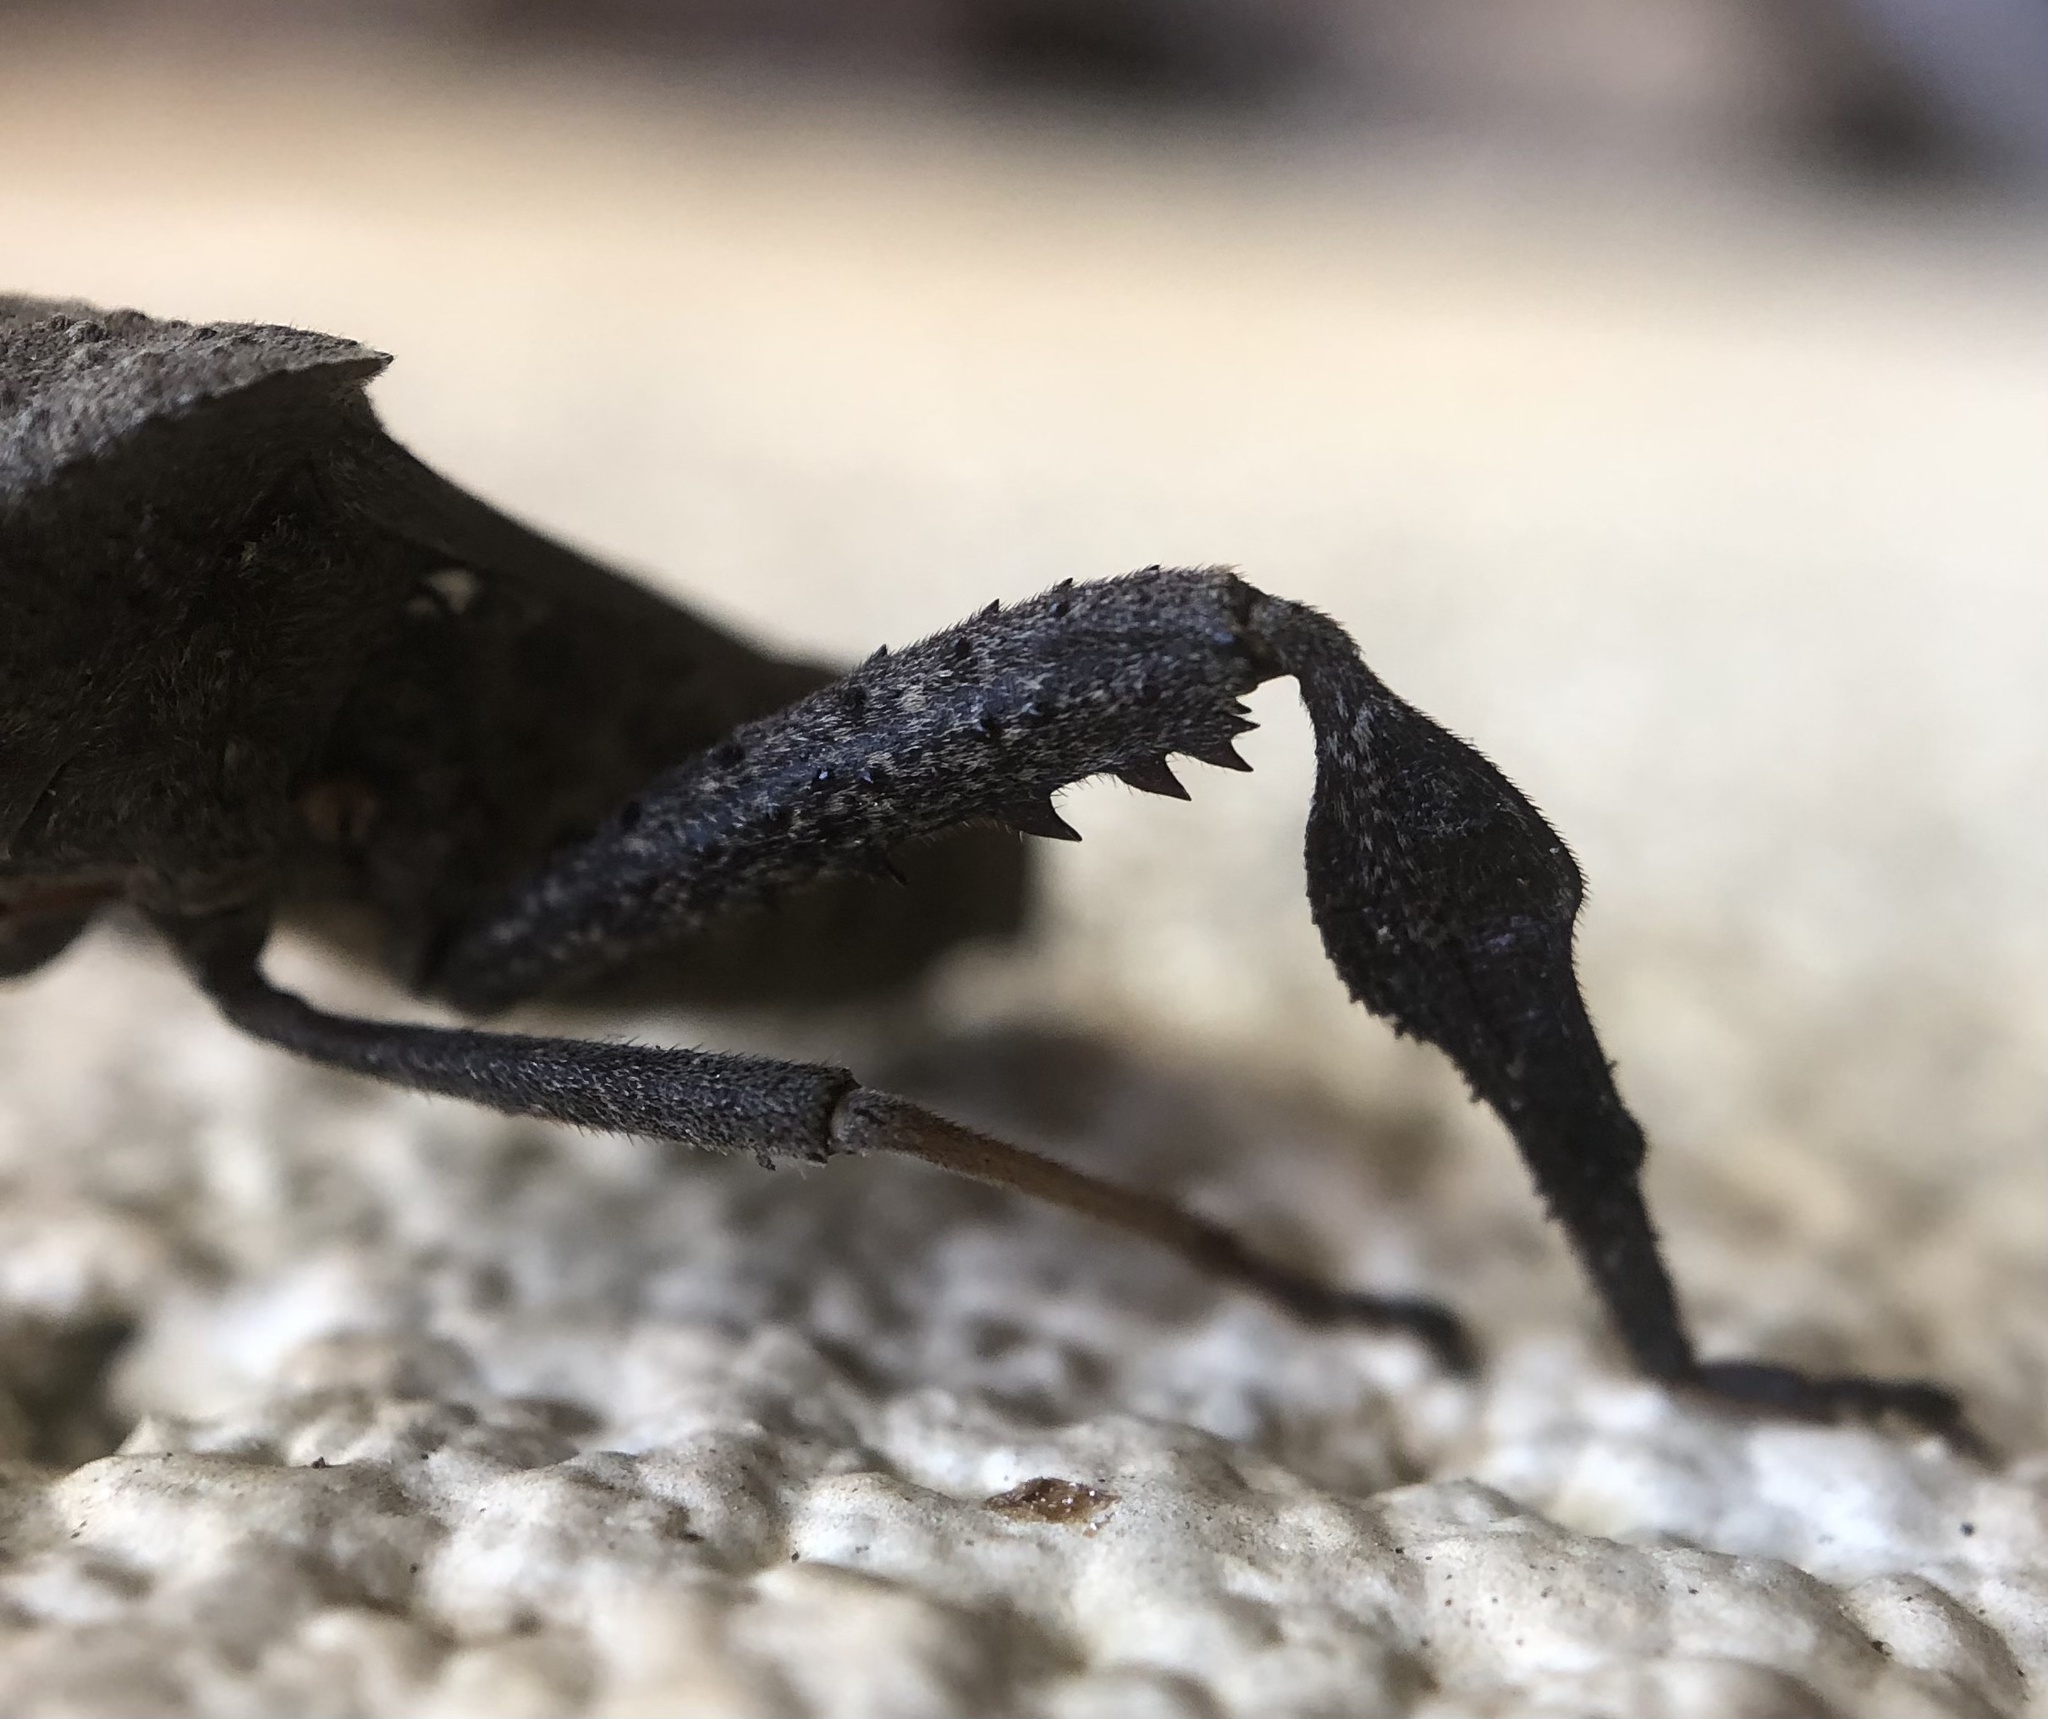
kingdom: Animalia
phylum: Arthropoda
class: Insecta
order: Hemiptera
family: Coreidae
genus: Acanthocephala
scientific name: Acanthocephala femorata
